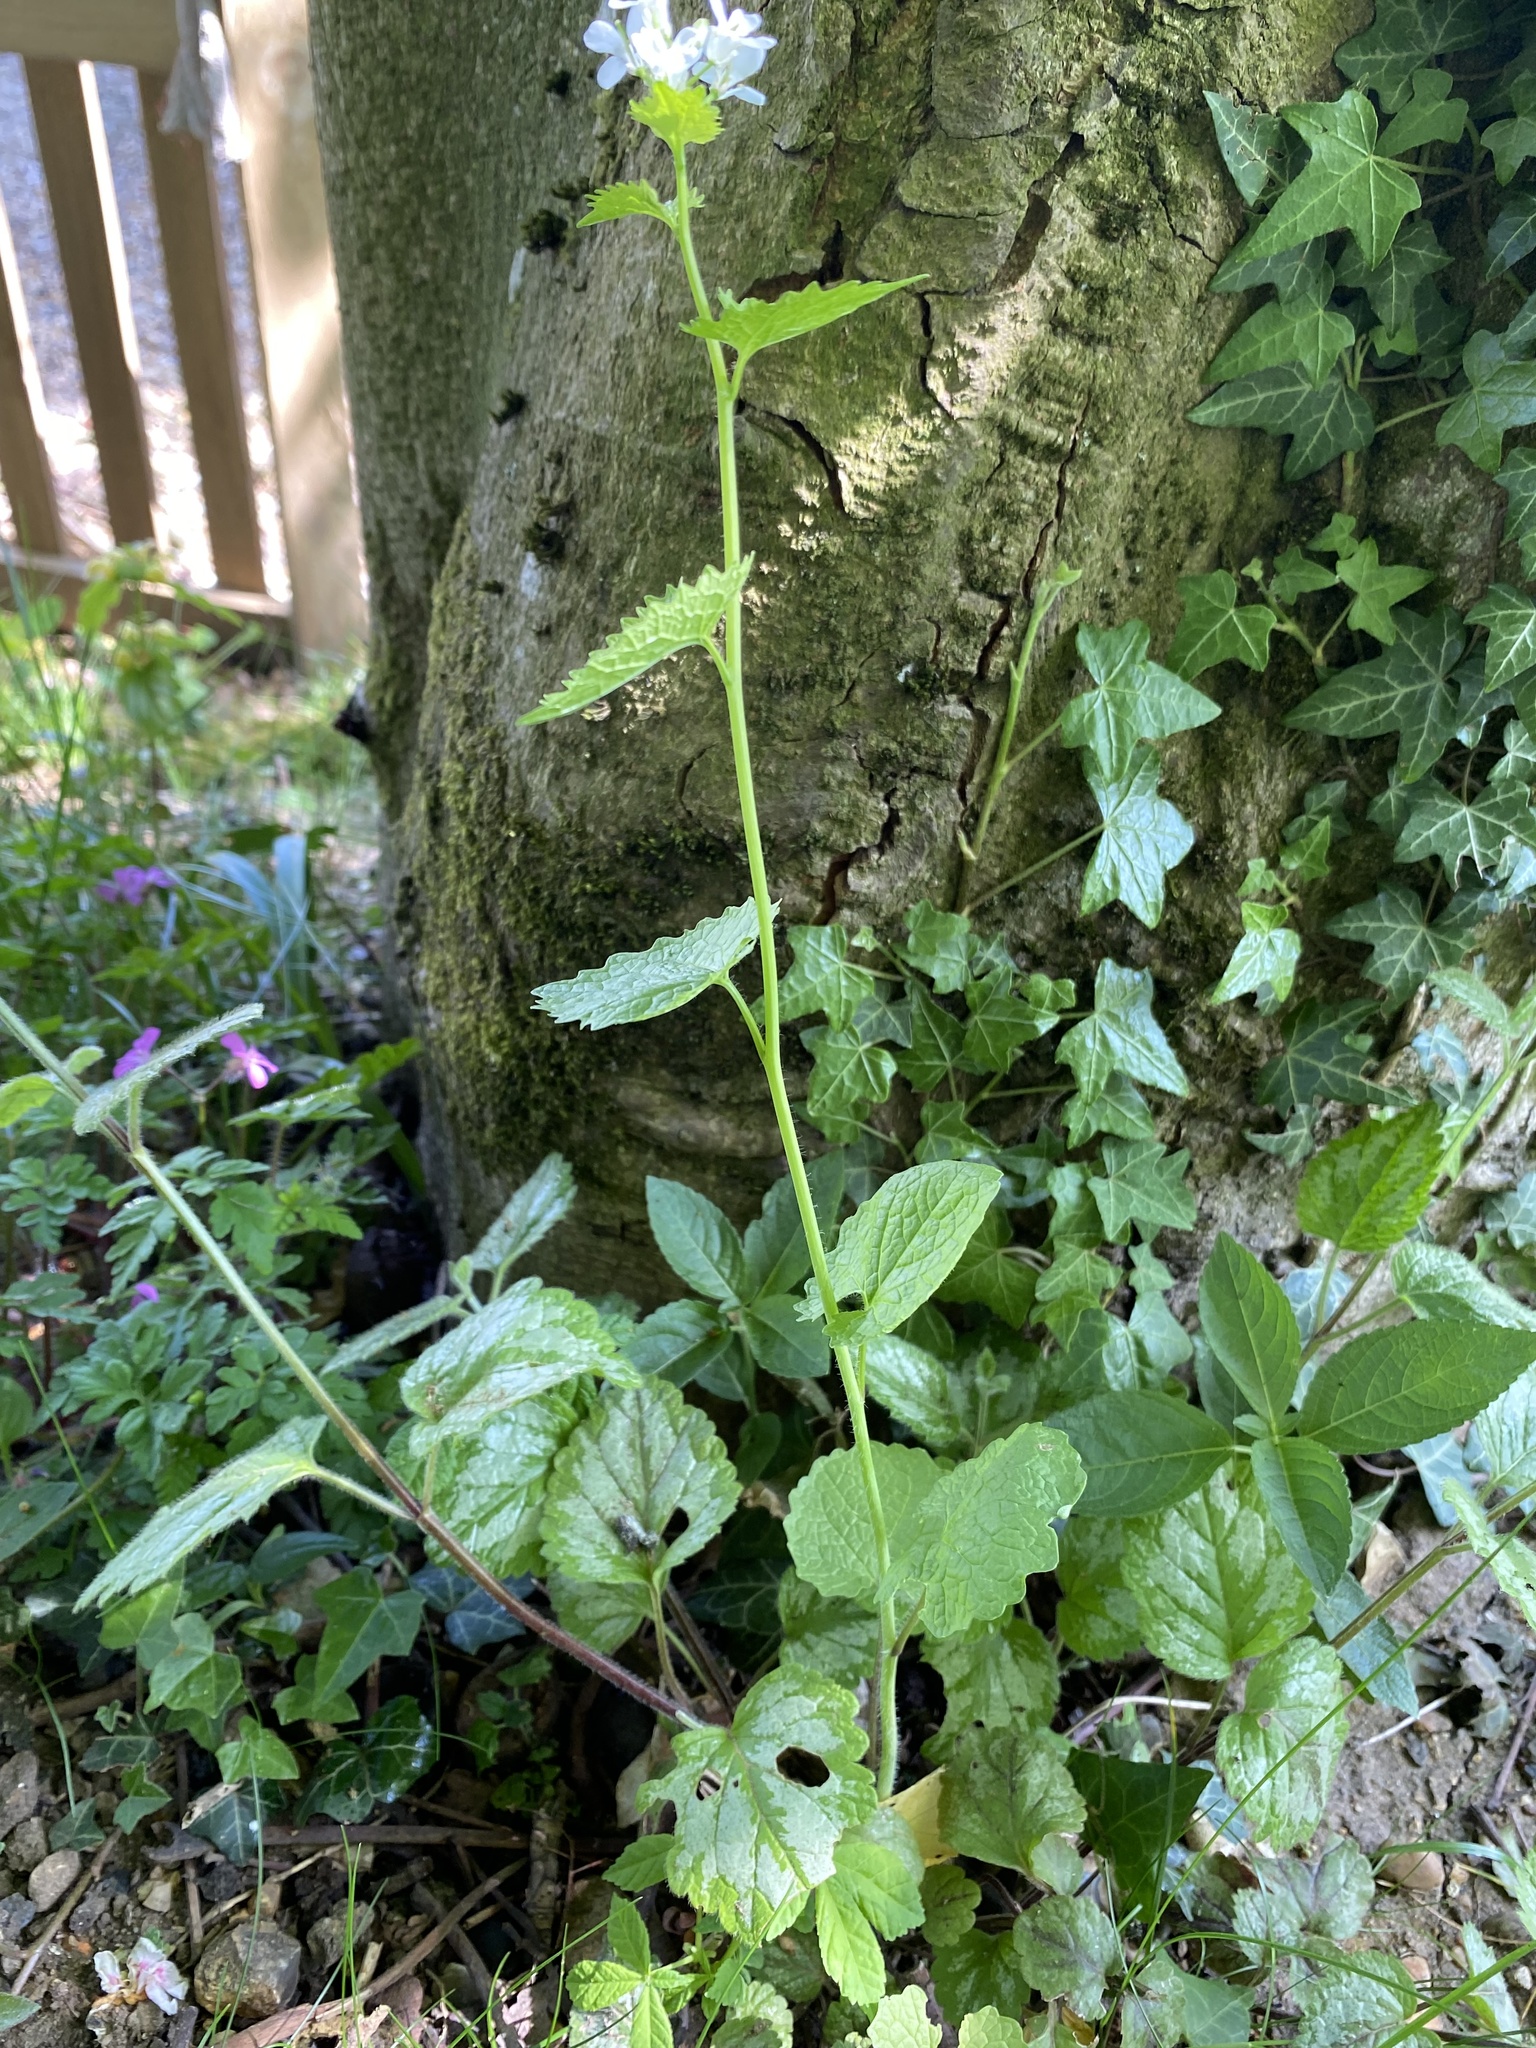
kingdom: Plantae
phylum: Tracheophyta
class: Magnoliopsida
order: Brassicales
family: Brassicaceae
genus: Alliaria
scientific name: Alliaria petiolata
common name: Garlic mustard
